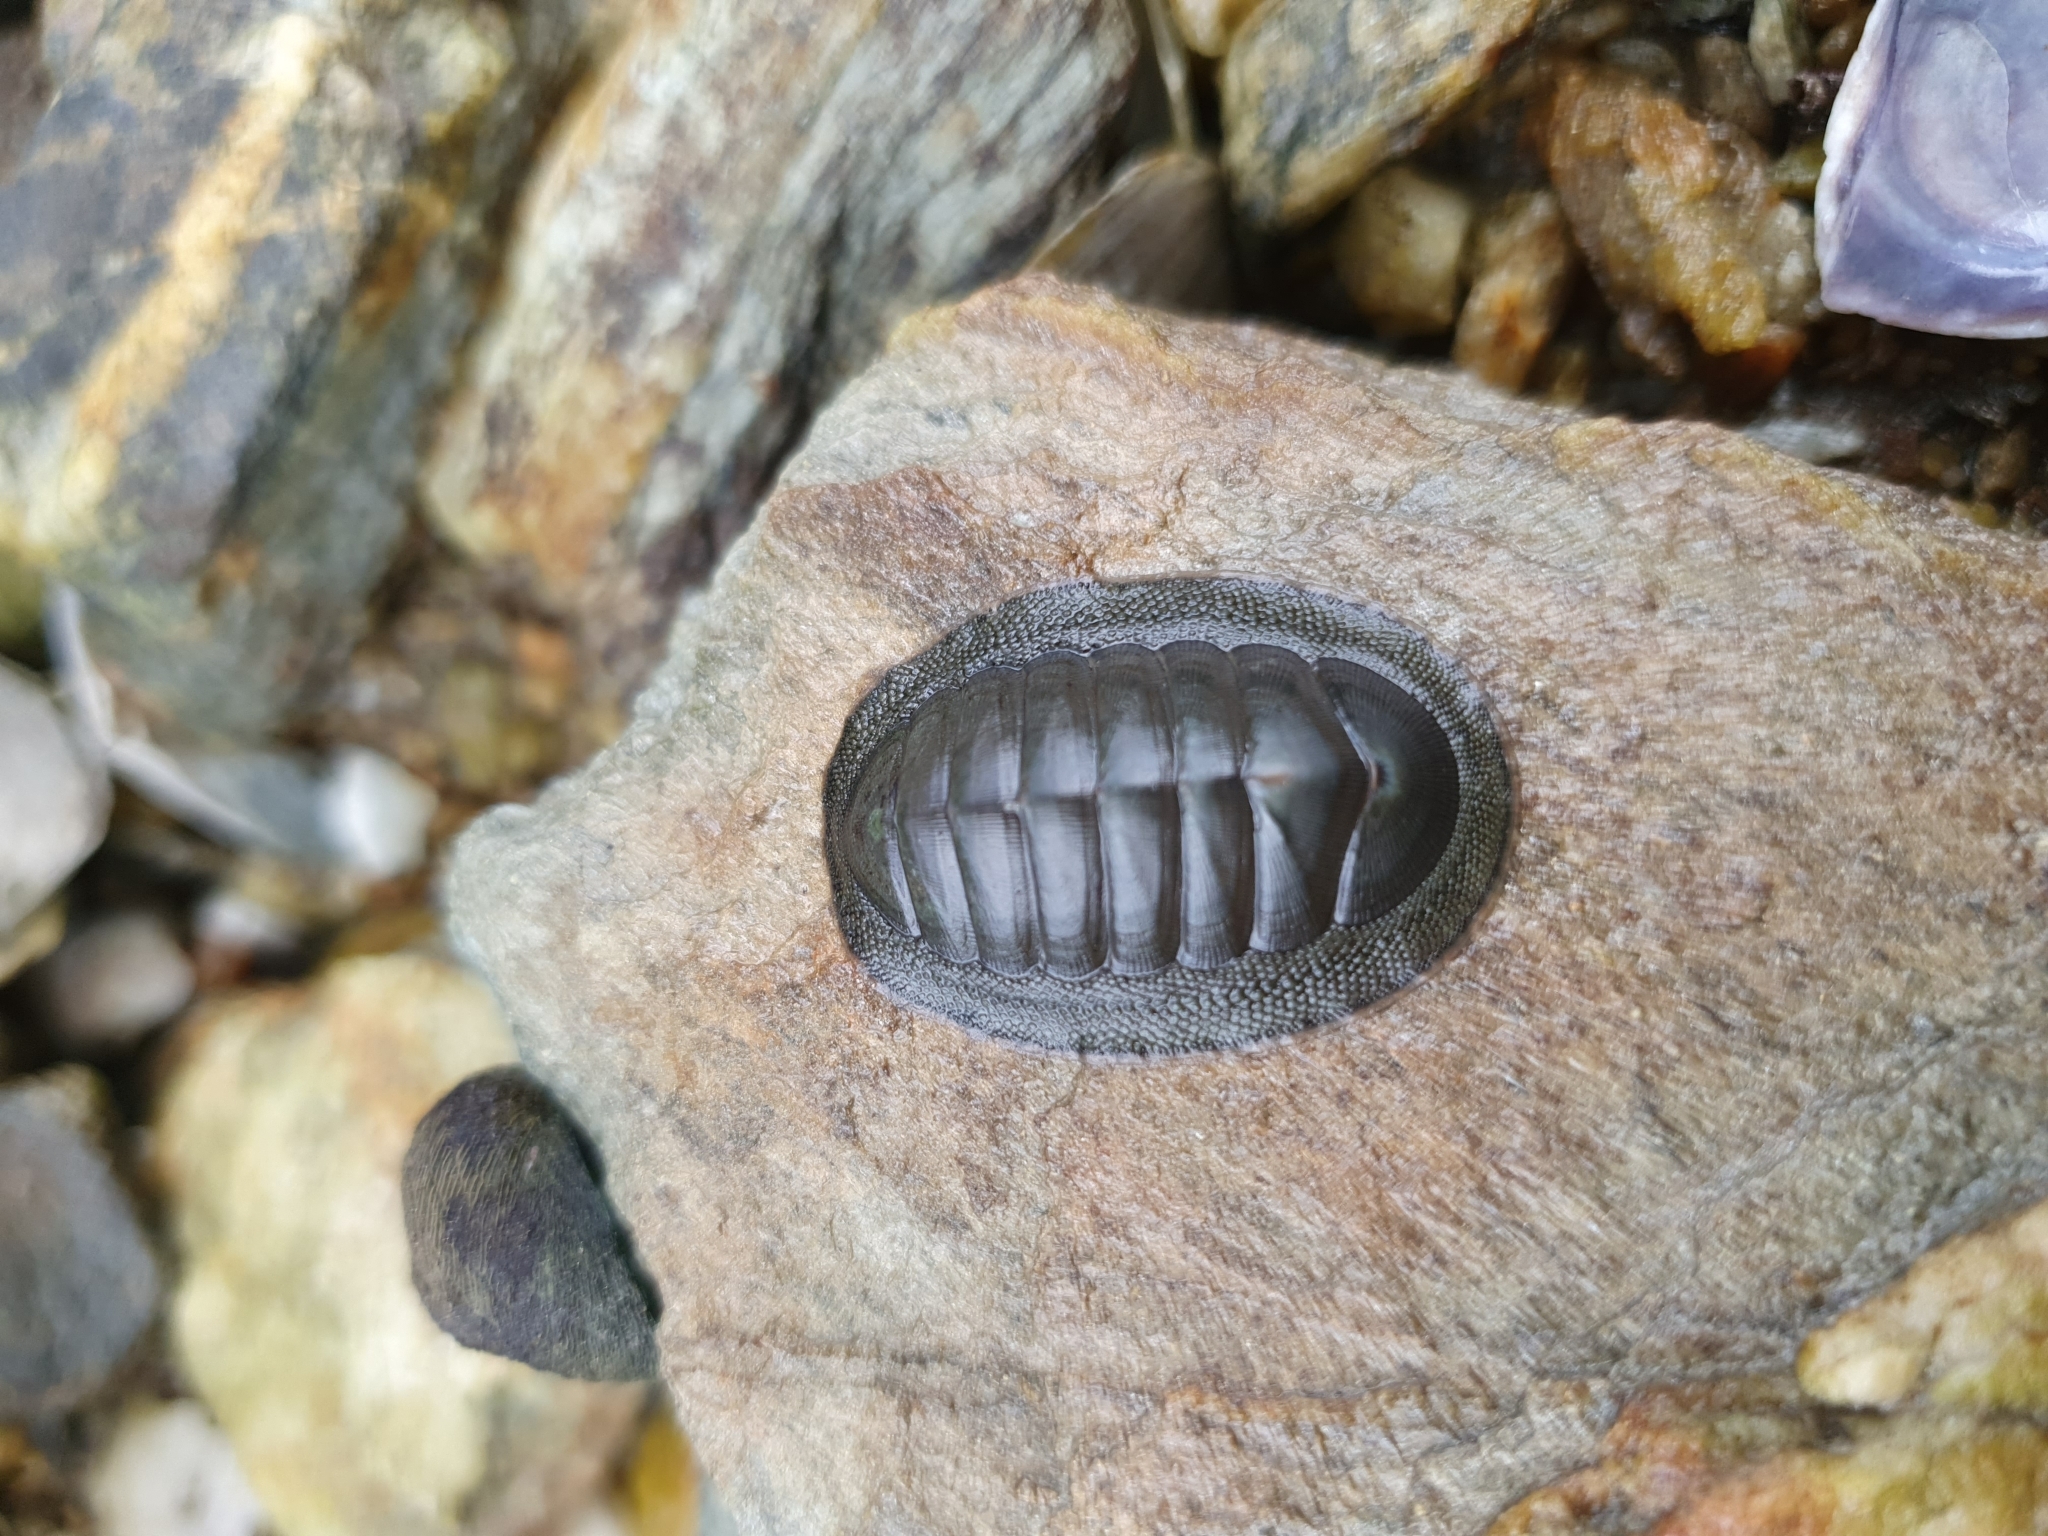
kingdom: Animalia
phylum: Mollusca
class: Polyplacophora
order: Chitonida
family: Chitonidae
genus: Chiton
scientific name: Chiton glaucus
